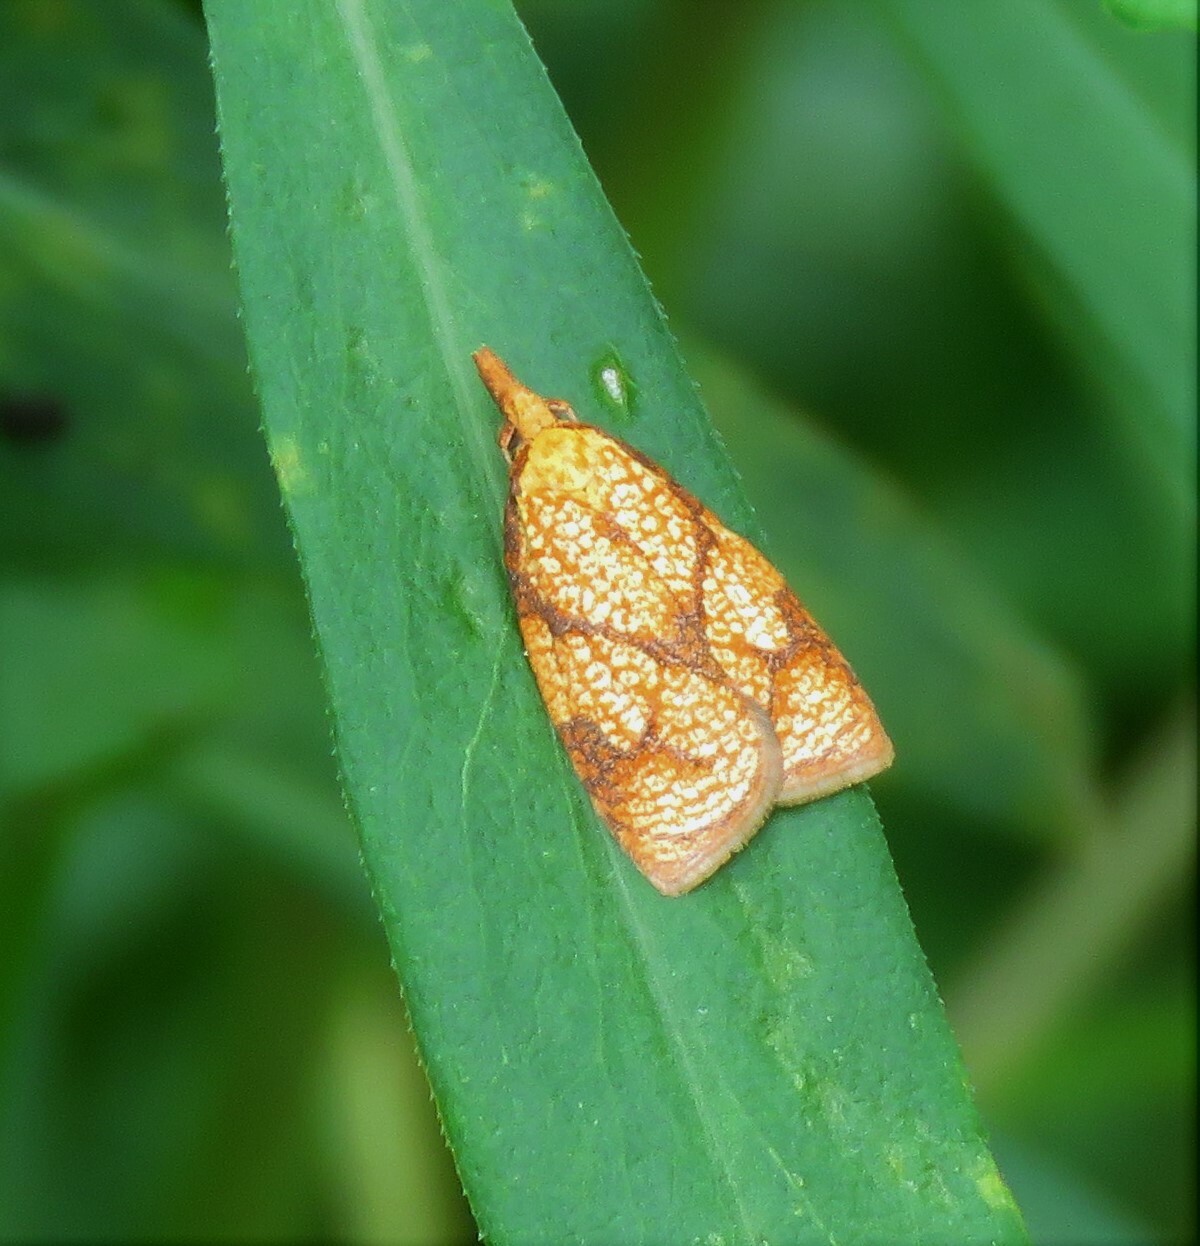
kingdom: Animalia
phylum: Arthropoda
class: Insecta
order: Lepidoptera
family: Tortricidae
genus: Cenopis
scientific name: Cenopis reticulatana
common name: Reticulated fruitworm moth
